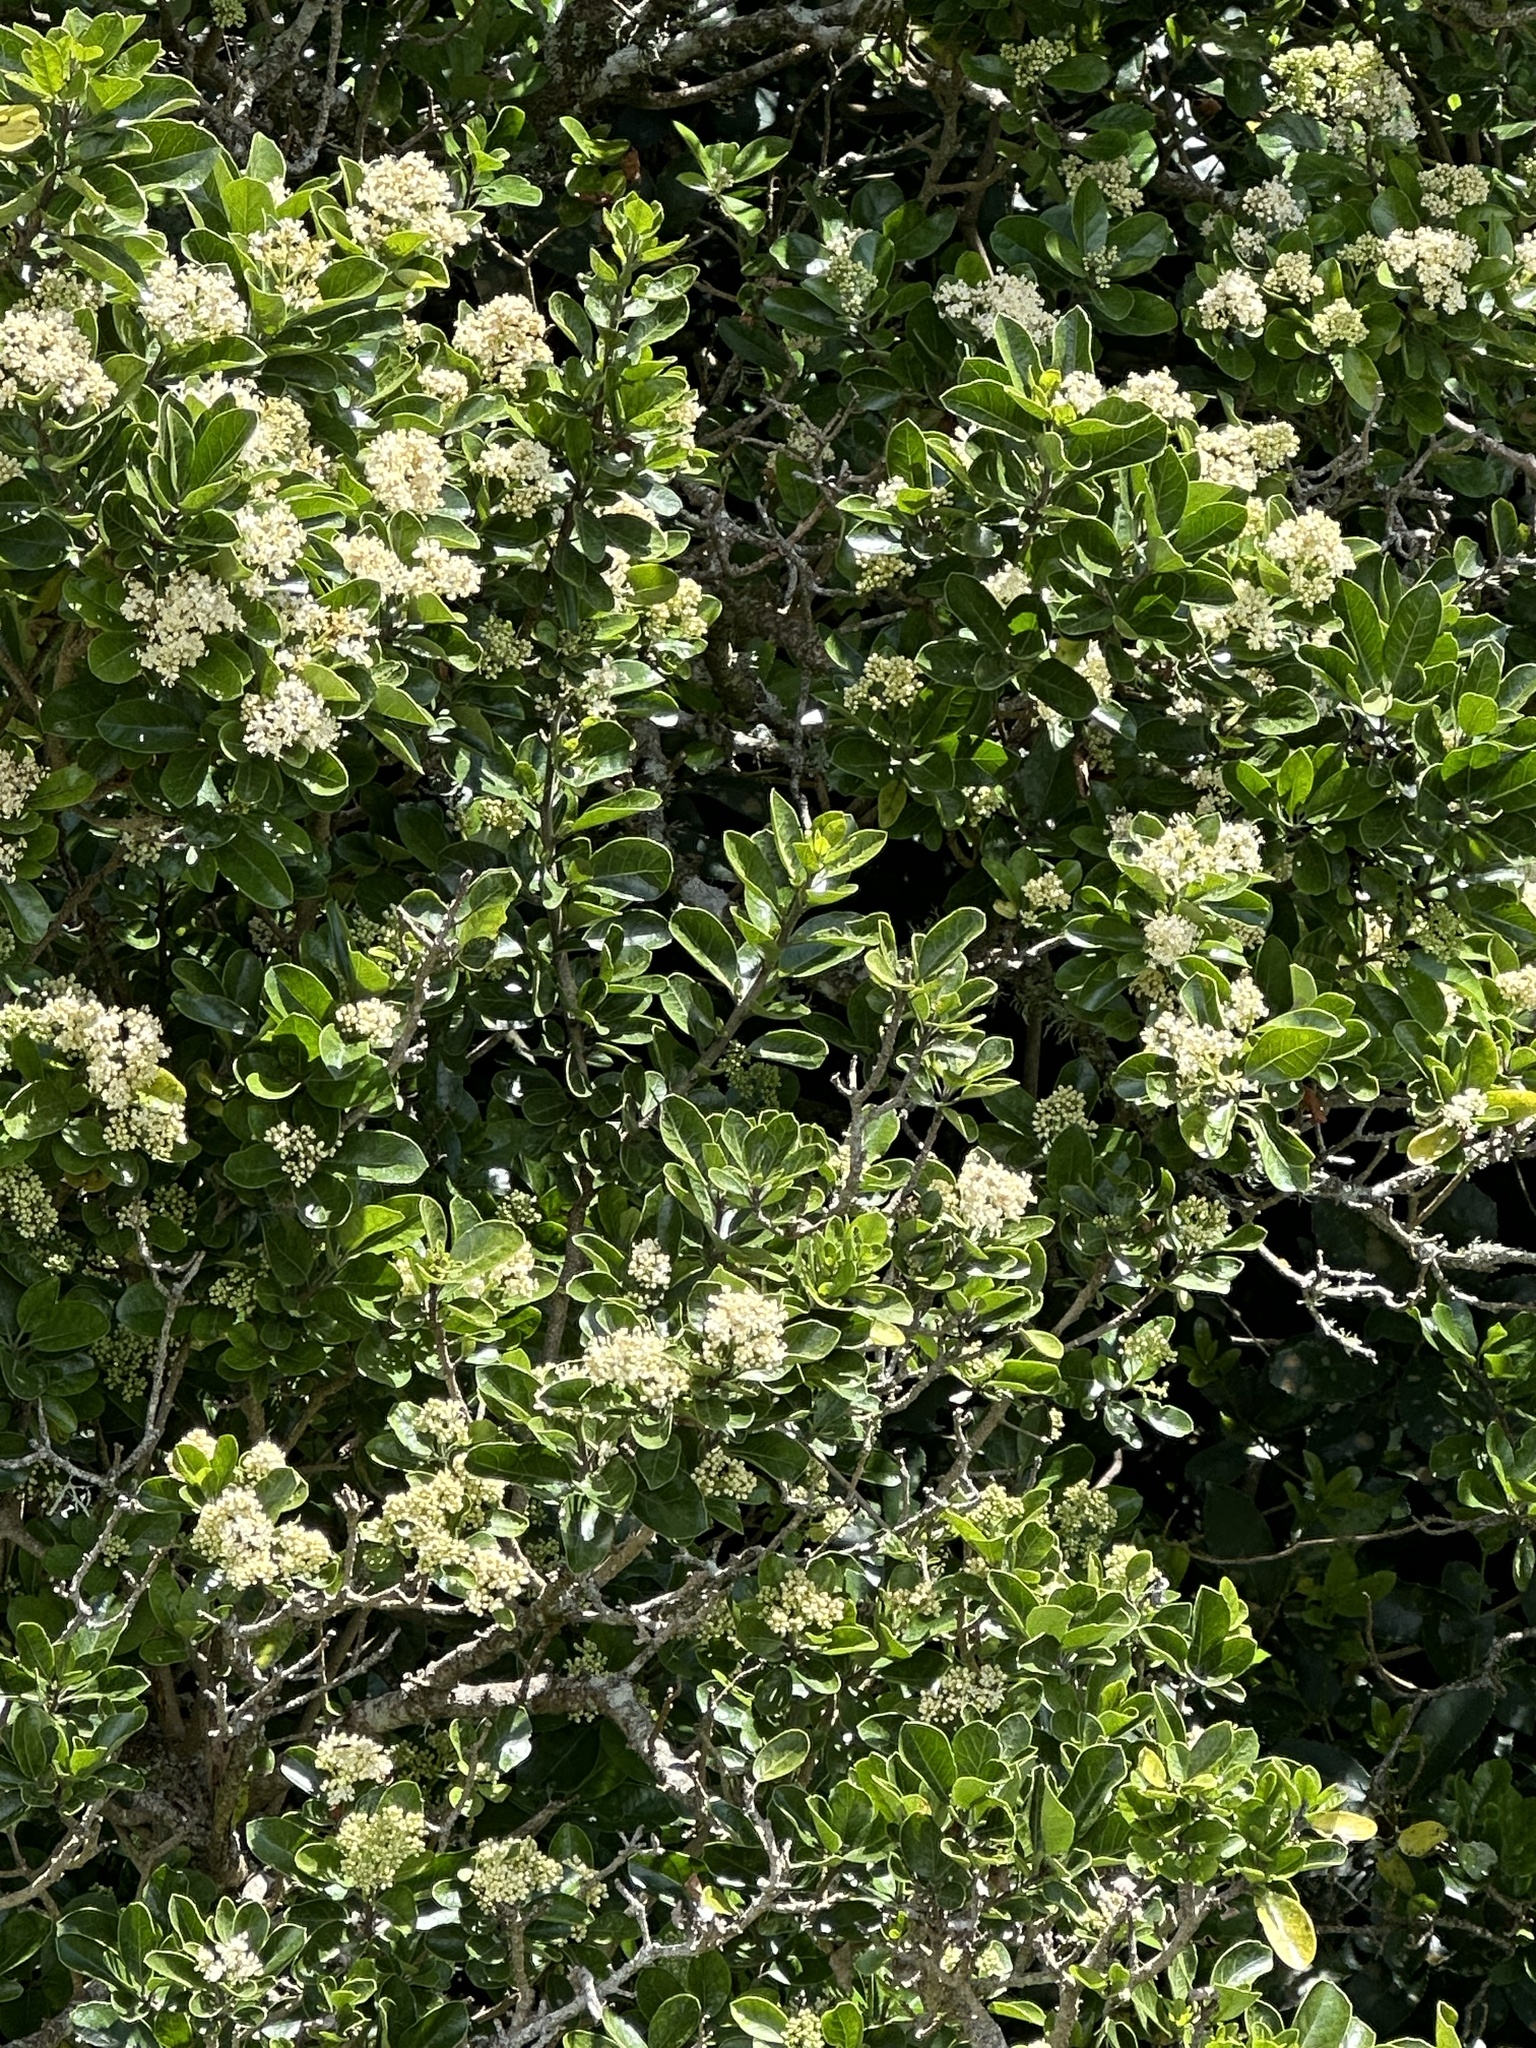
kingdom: Plantae
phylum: Tracheophyta
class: Magnoliopsida
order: Apiales
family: Pennantiaceae
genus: Pennantia
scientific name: Pennantia corymbosa
